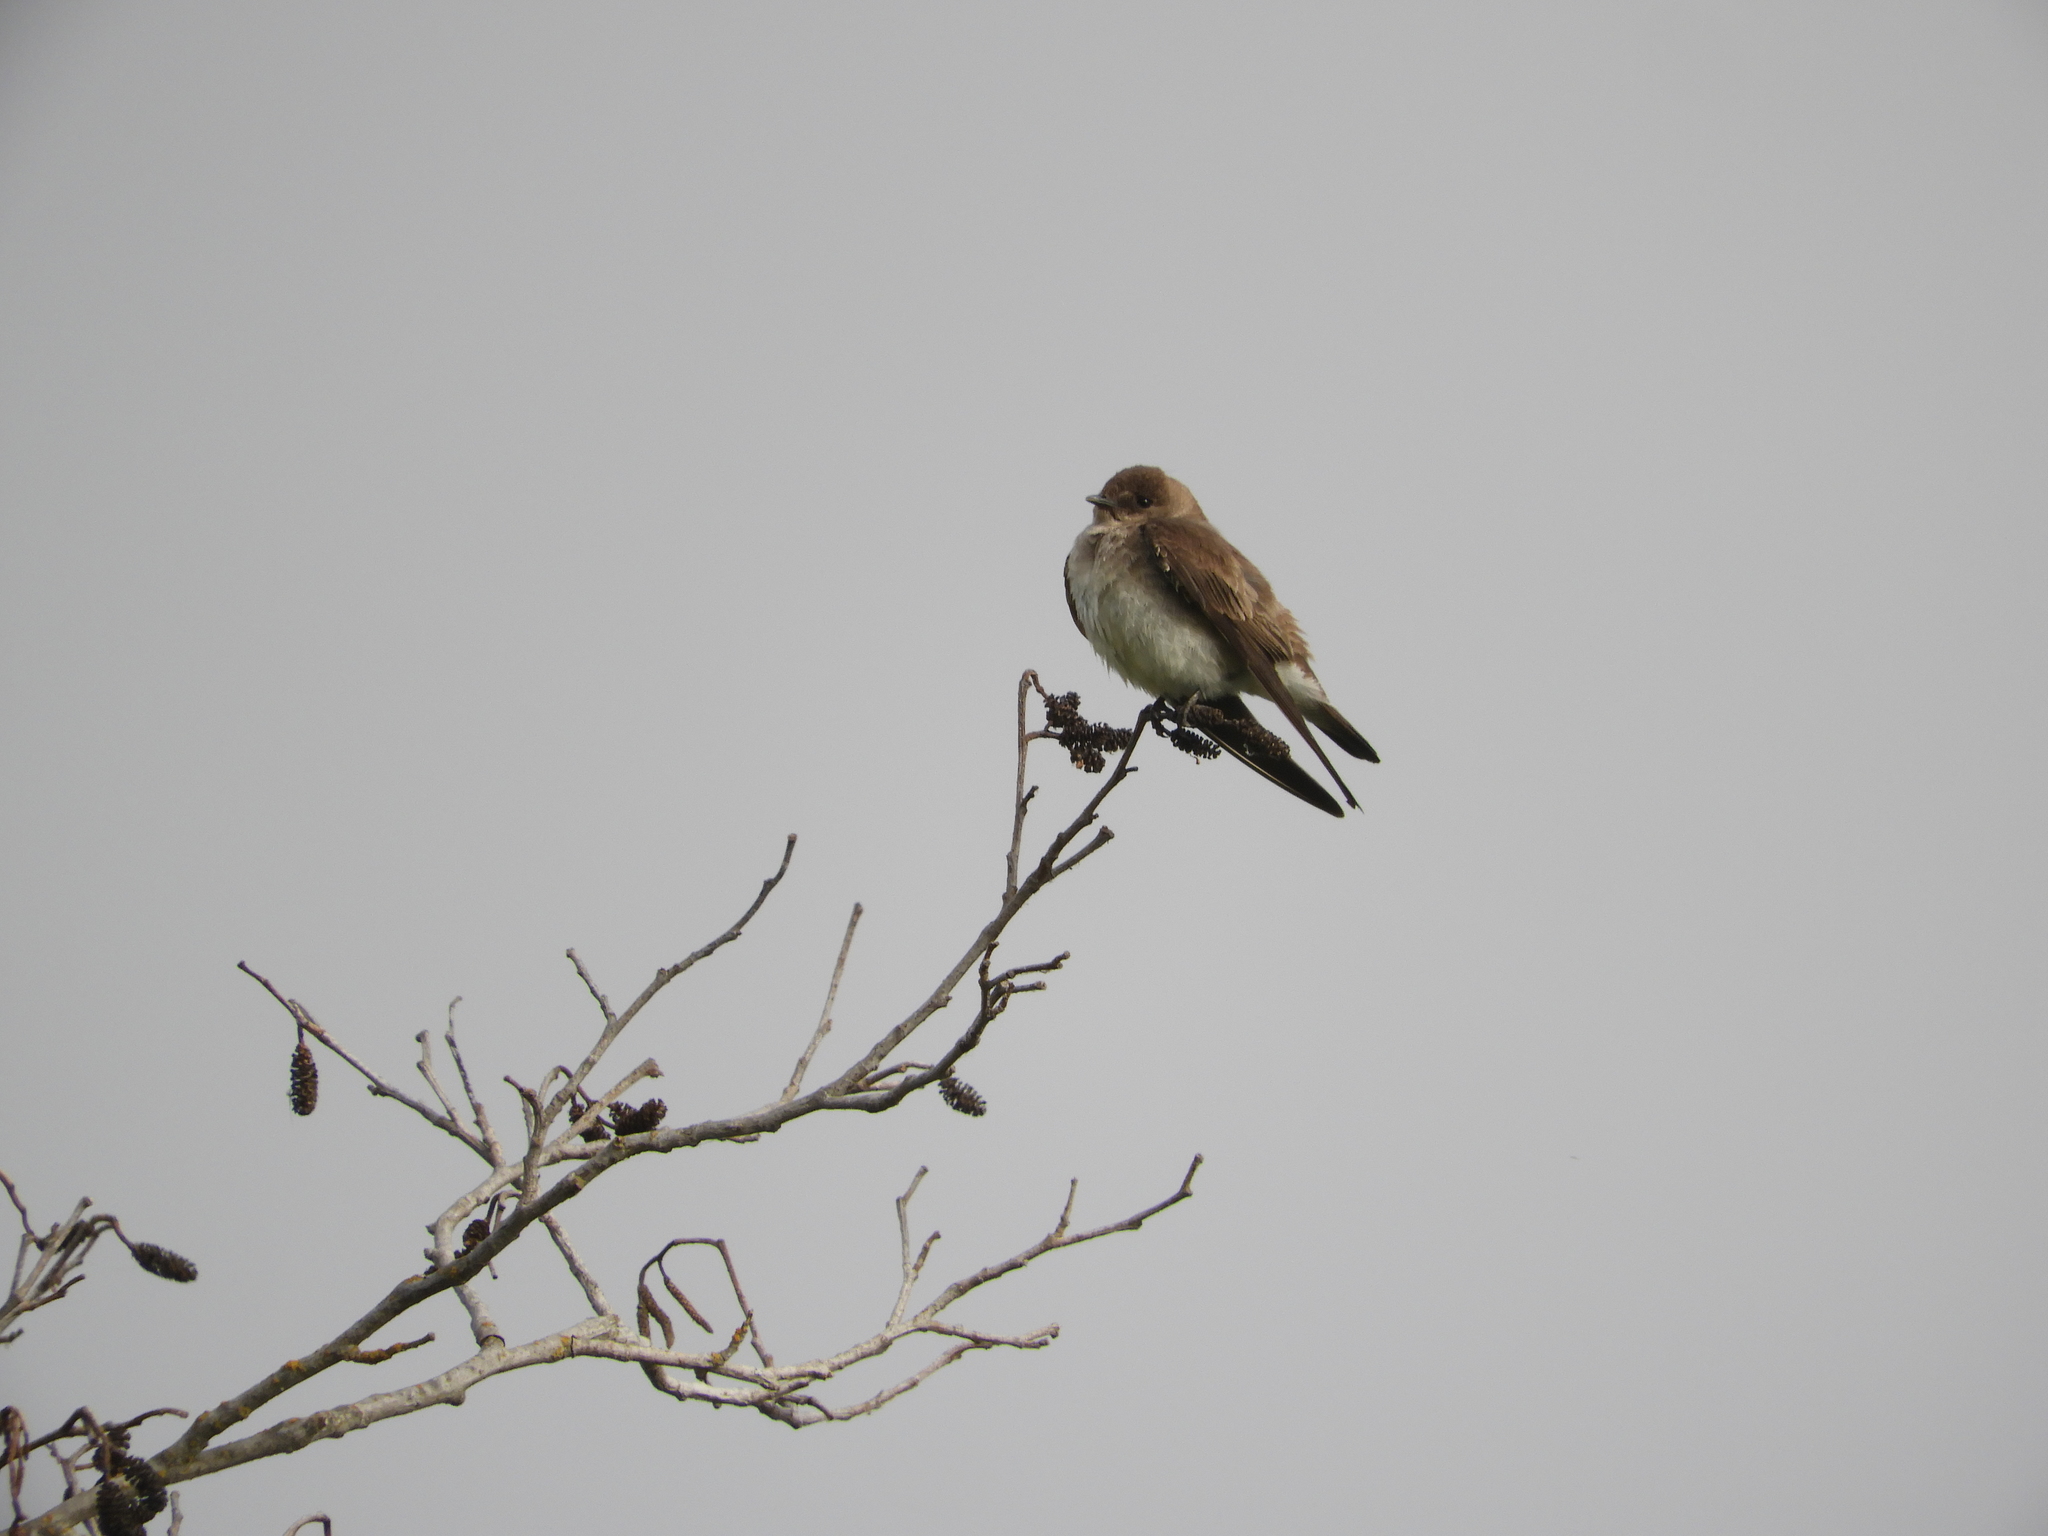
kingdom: Animalia
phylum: Chordata
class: Aves
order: Passeriformes
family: Hirundinidae
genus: Stelgidopteryx
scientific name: Stelgidopteryx serripennis
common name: Northern rough-winged swallow
